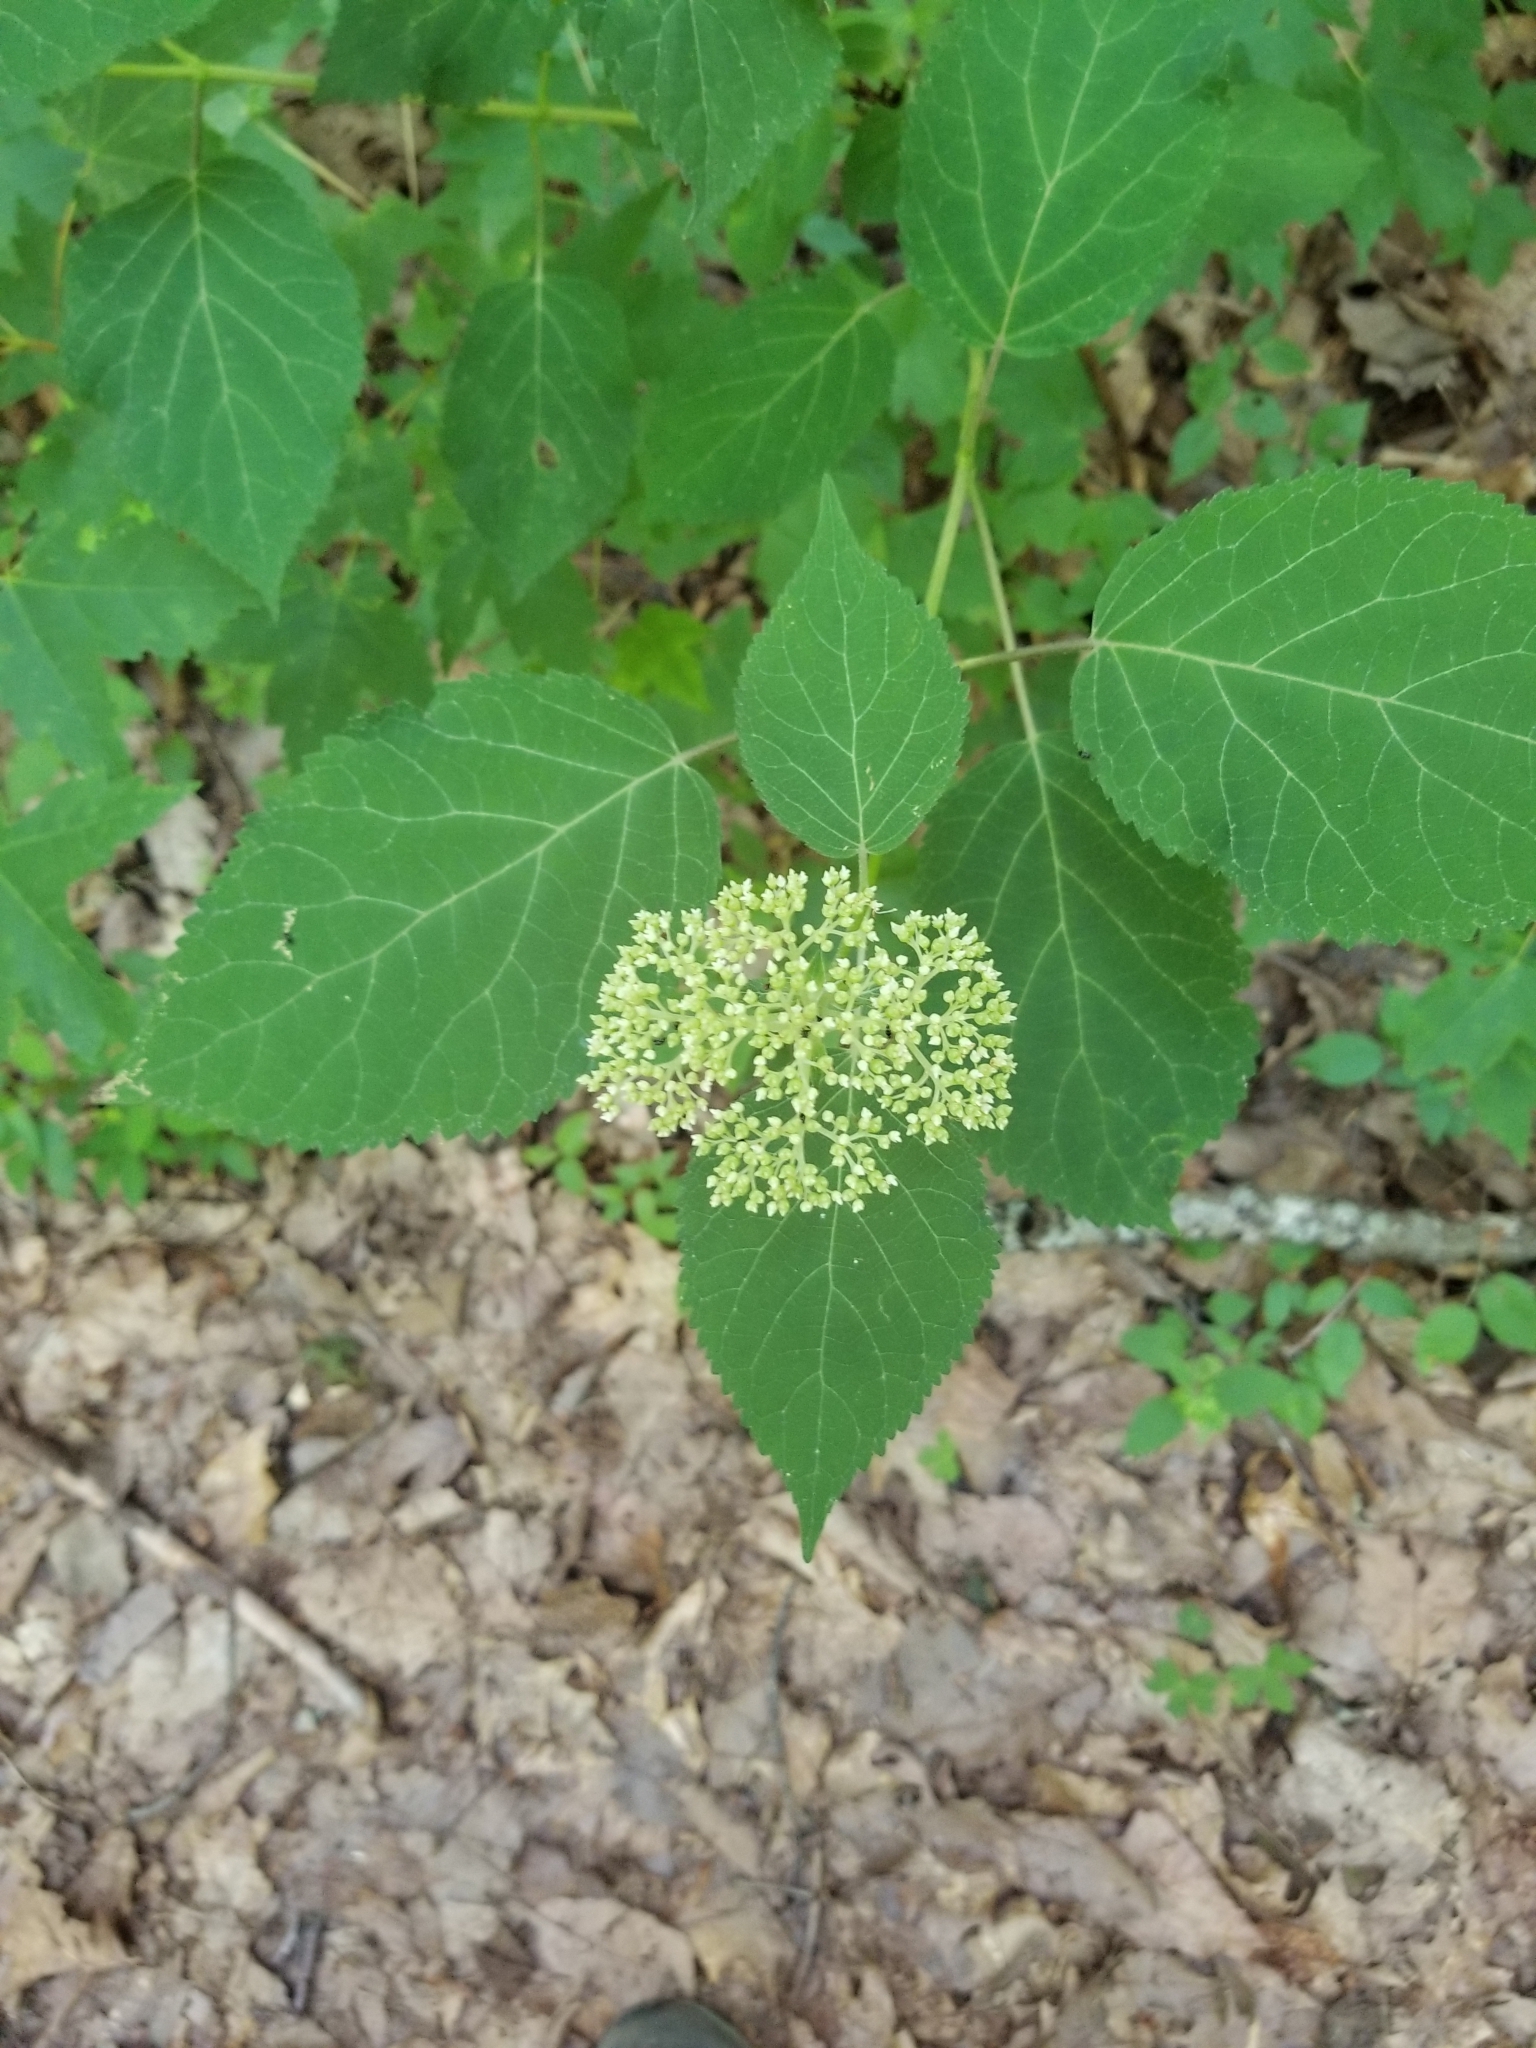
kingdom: Plantae
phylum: Tracheophyta
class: Magnoliopsida
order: Cornales
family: Hydrangeaceae
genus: Hydrangea
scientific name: Hydrangea arborescens
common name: Sevenbark
